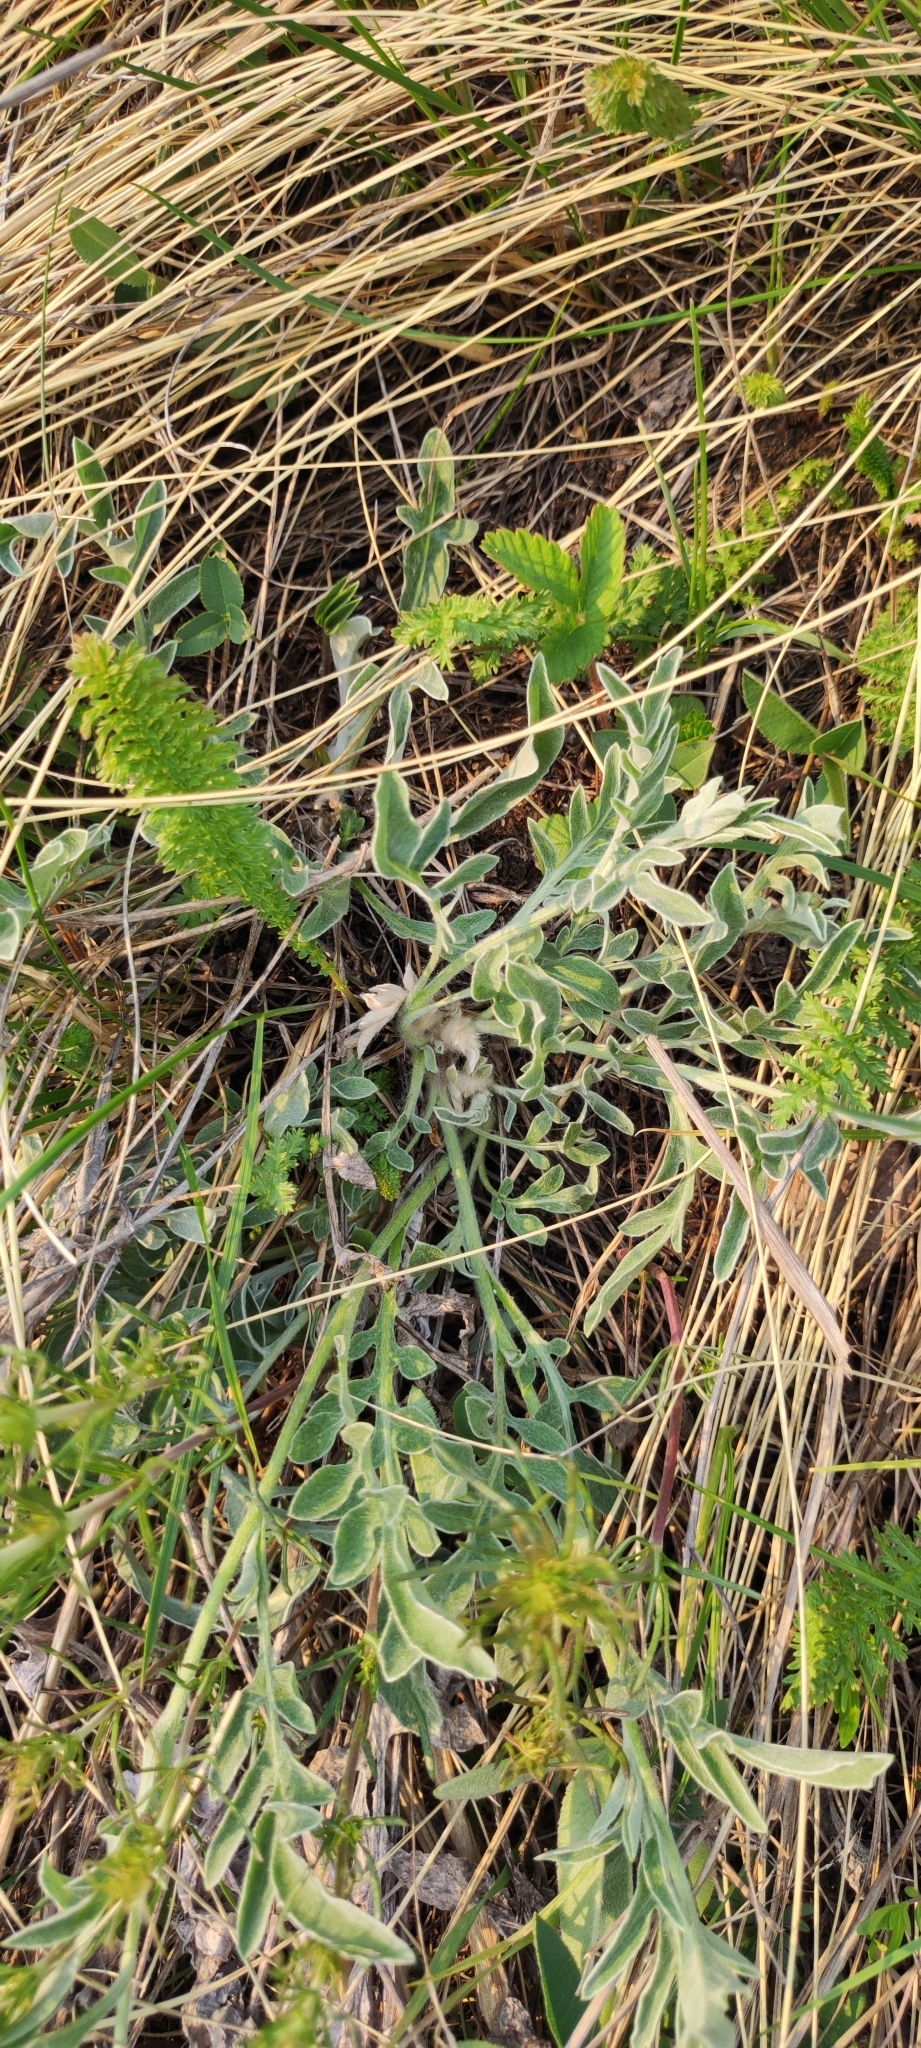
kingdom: Plantae
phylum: Tracheophyta
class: Magnoliopsida
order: Asterales
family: Asteraceae
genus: Psephellus
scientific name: Psephellus sibiricus
